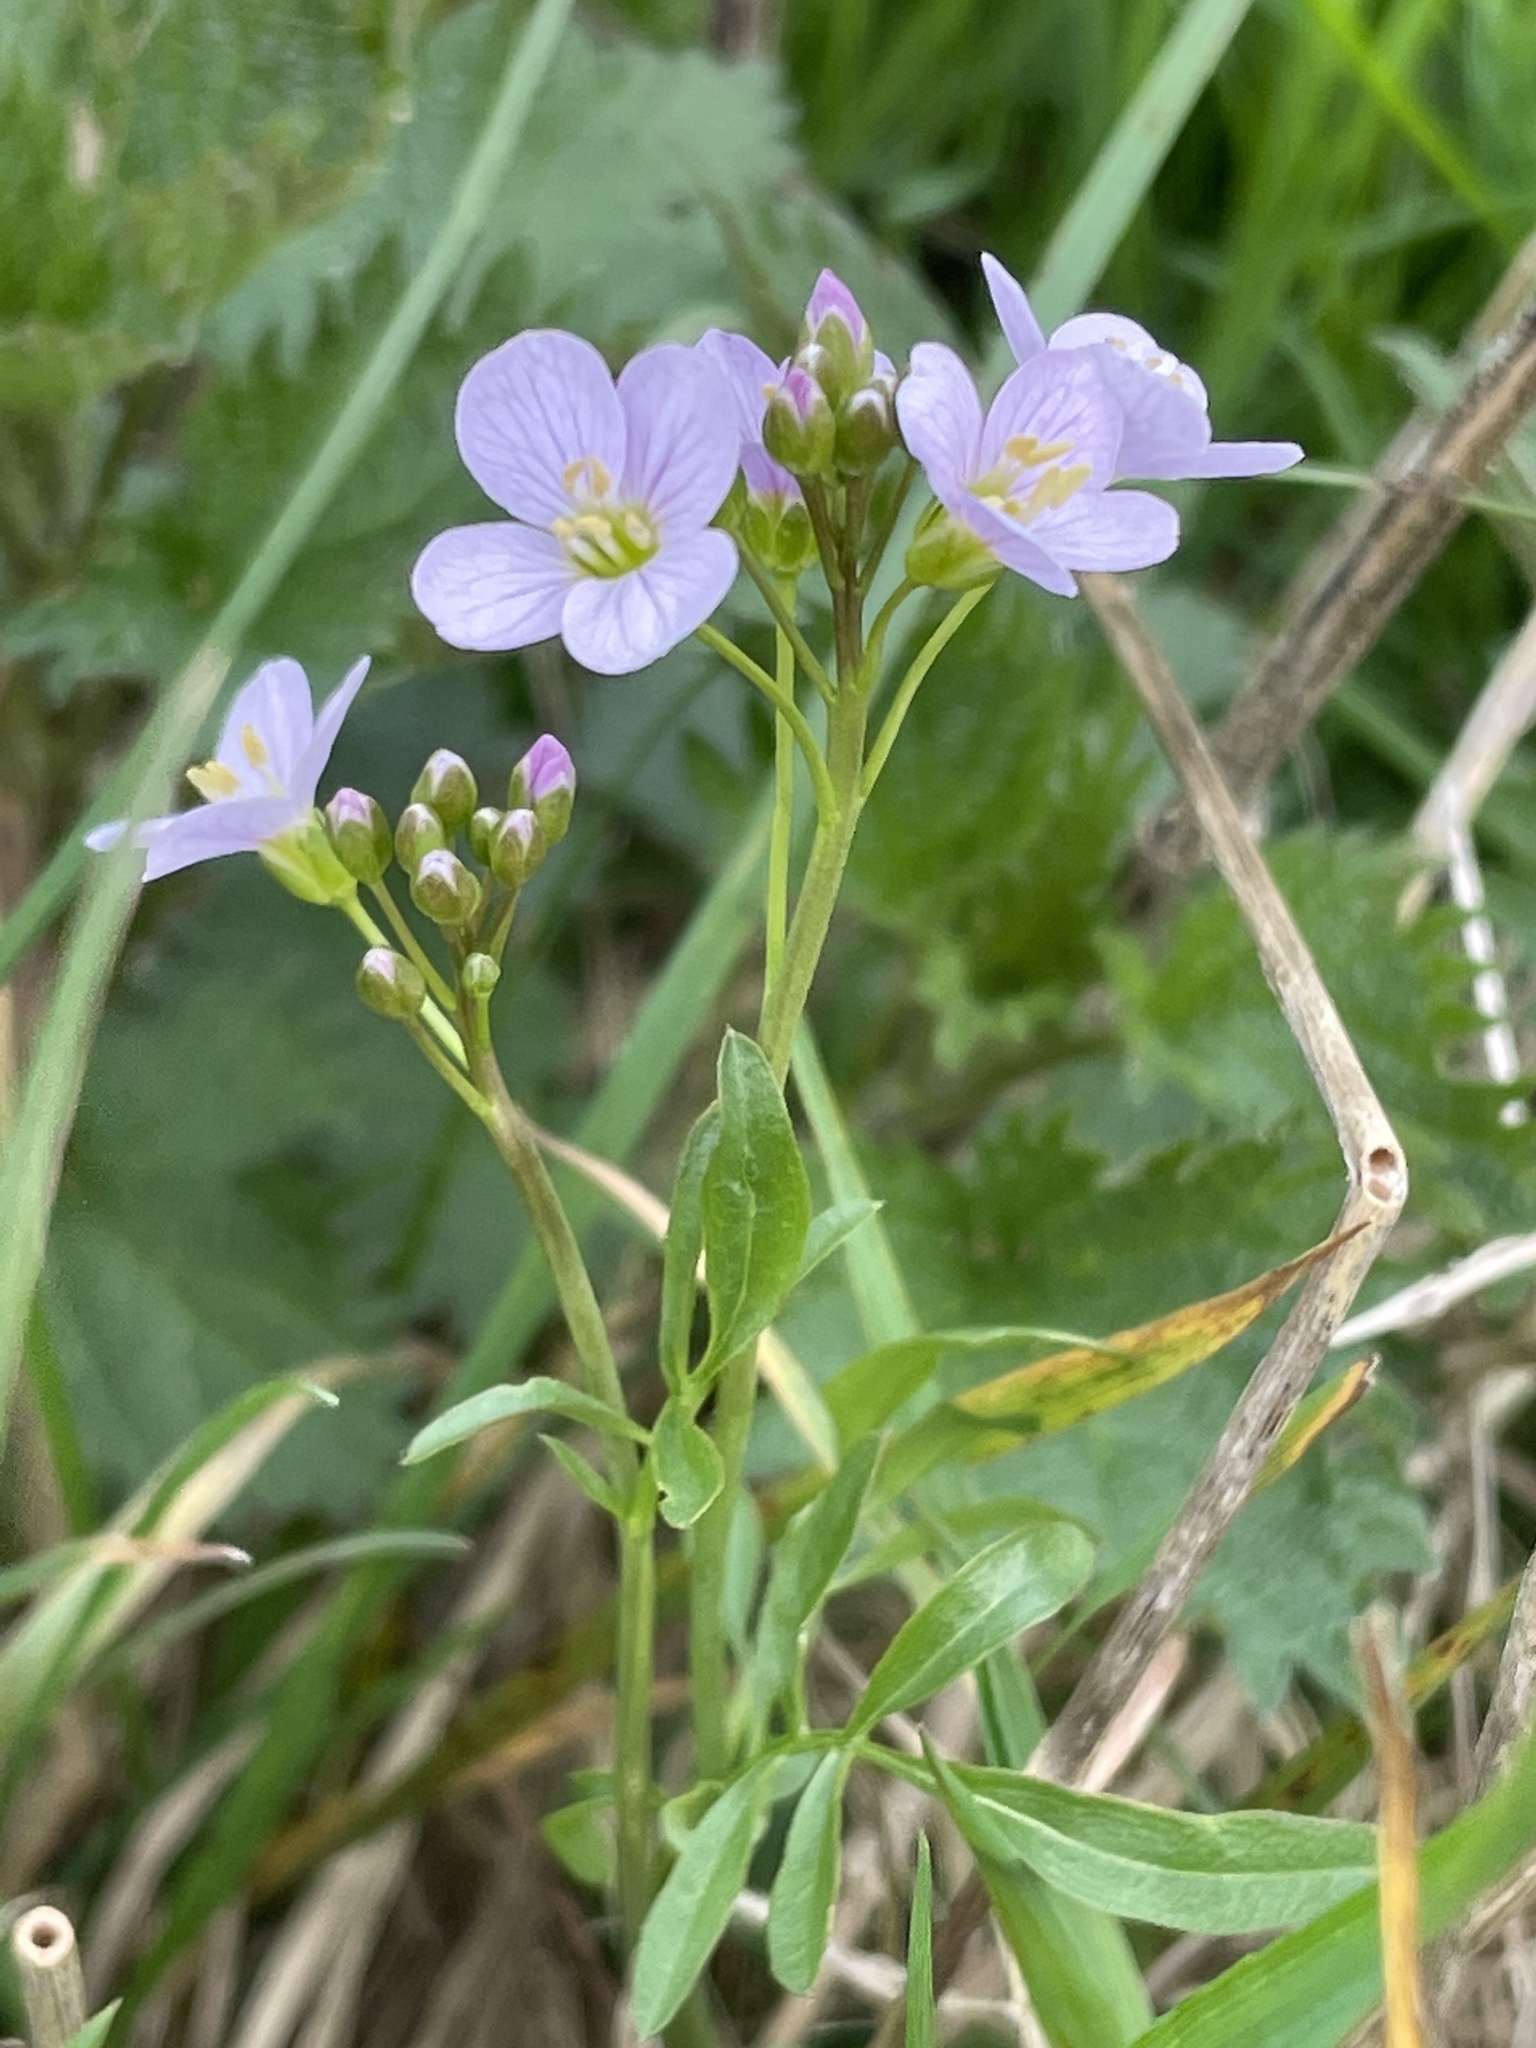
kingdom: Plantae
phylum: Tracheophyta
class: Magnoliopsida
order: Brassicales
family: Brassicaceae
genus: Cardamine
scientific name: Cardamine pratensis
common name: Cuckoo flower
